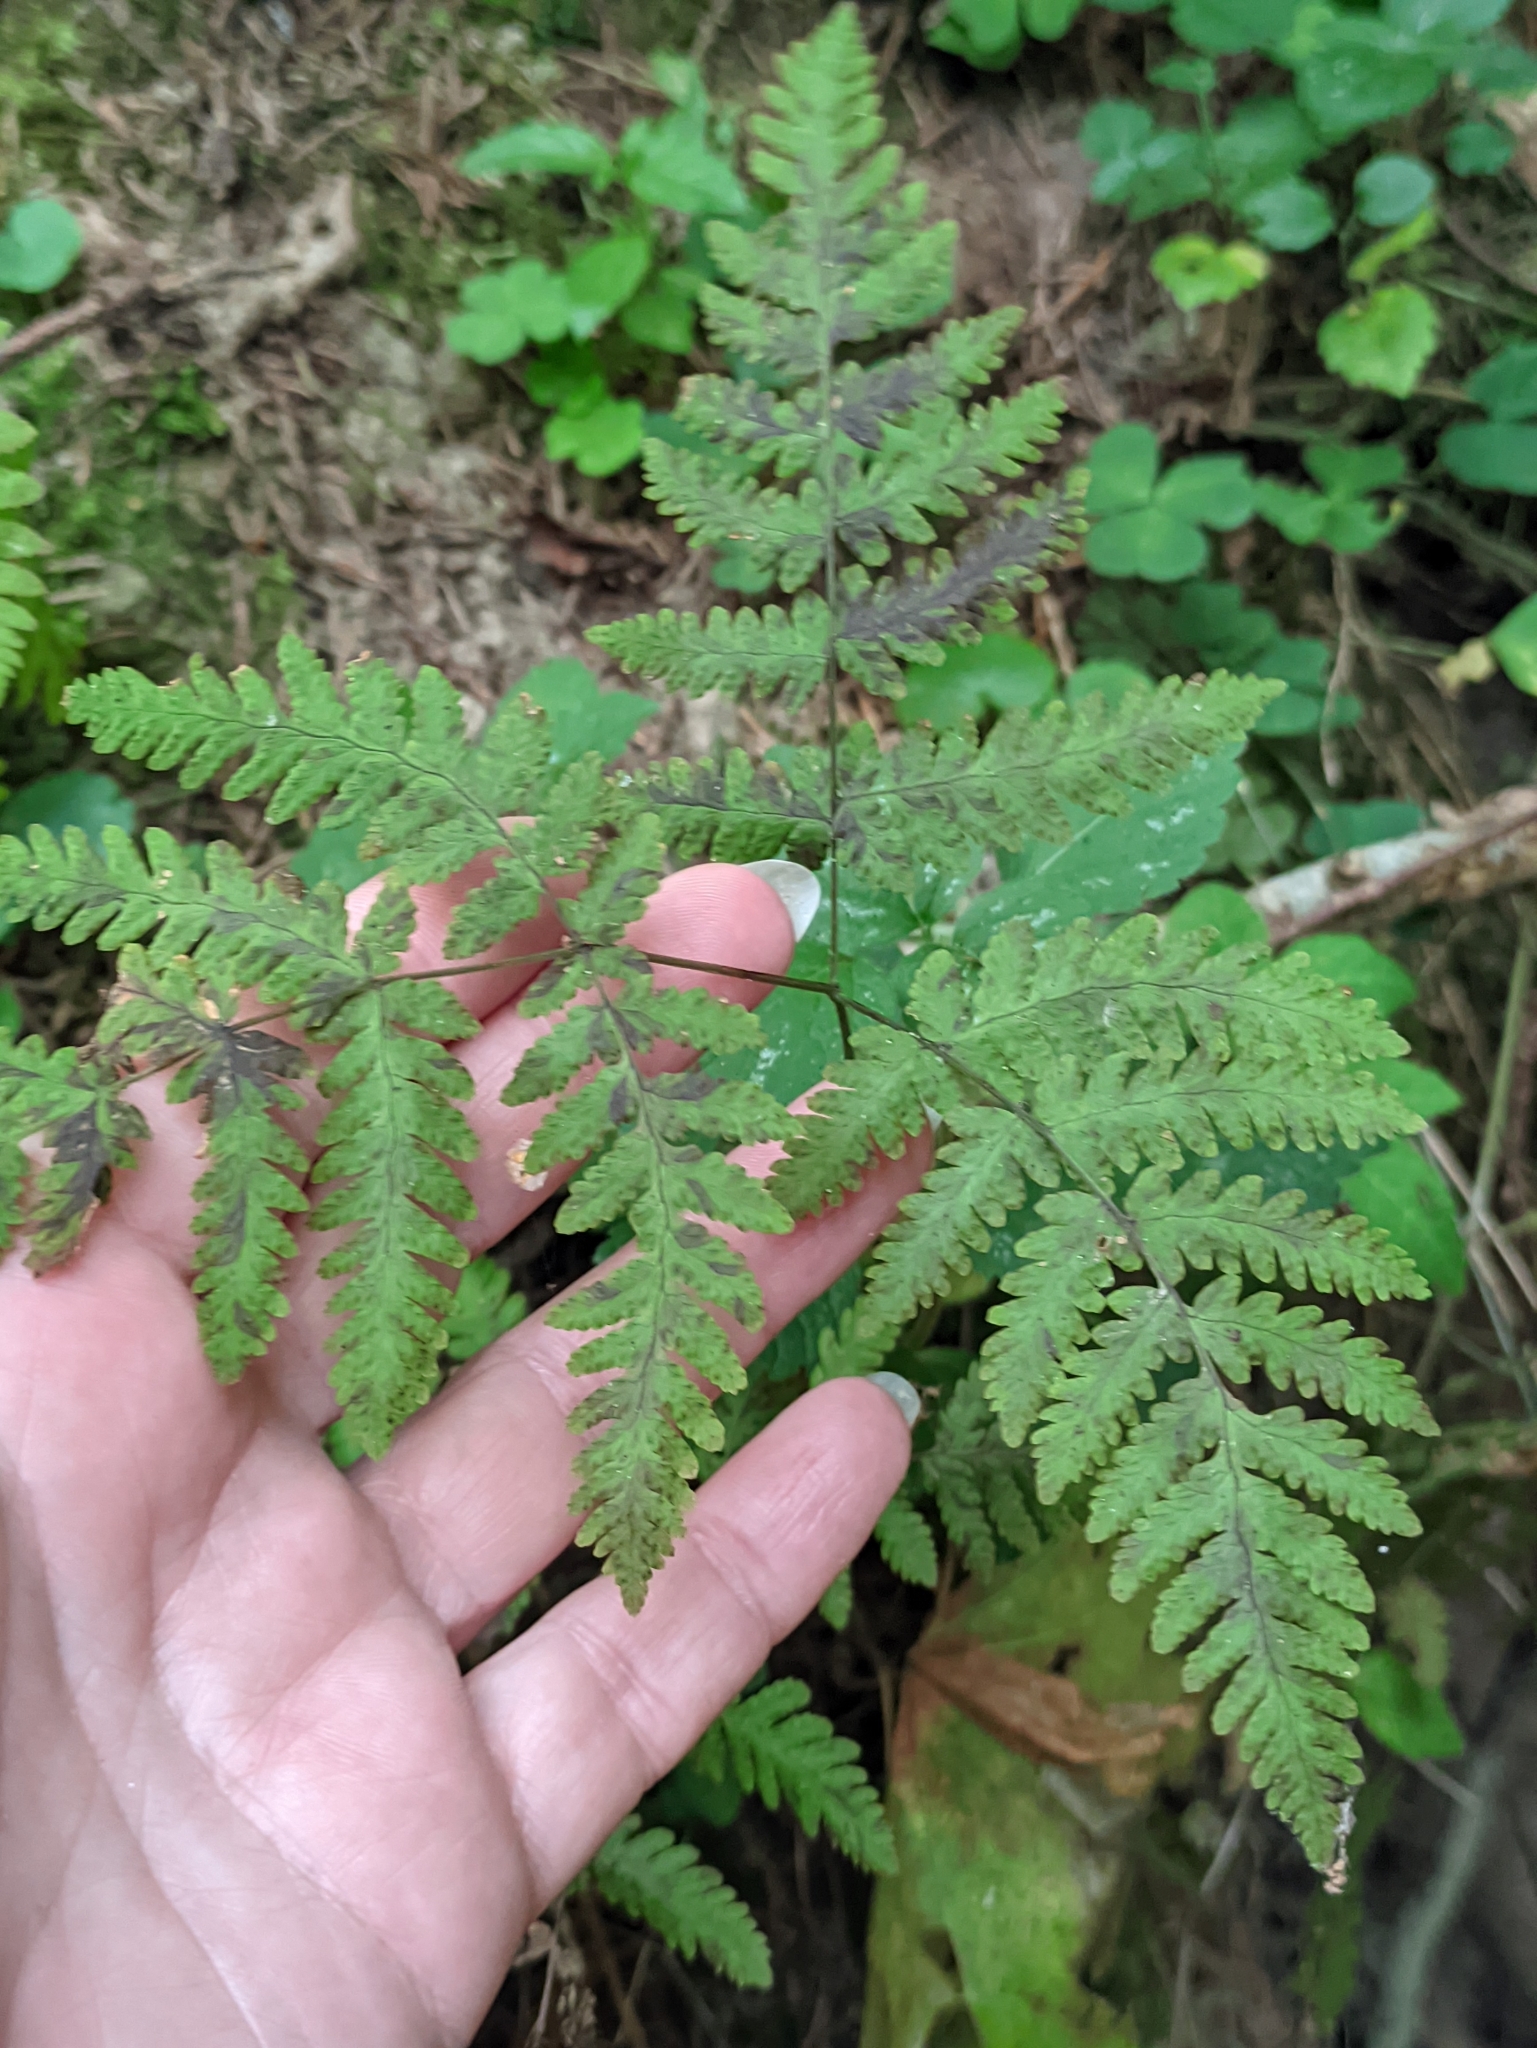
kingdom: Plantae
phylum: Tracheophyta
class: Polypodiopsida
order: Polypodiales
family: Cystopteridaceae
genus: Gymnocarpium
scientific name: Gymnocarpium dryopteris
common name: Oak fern
